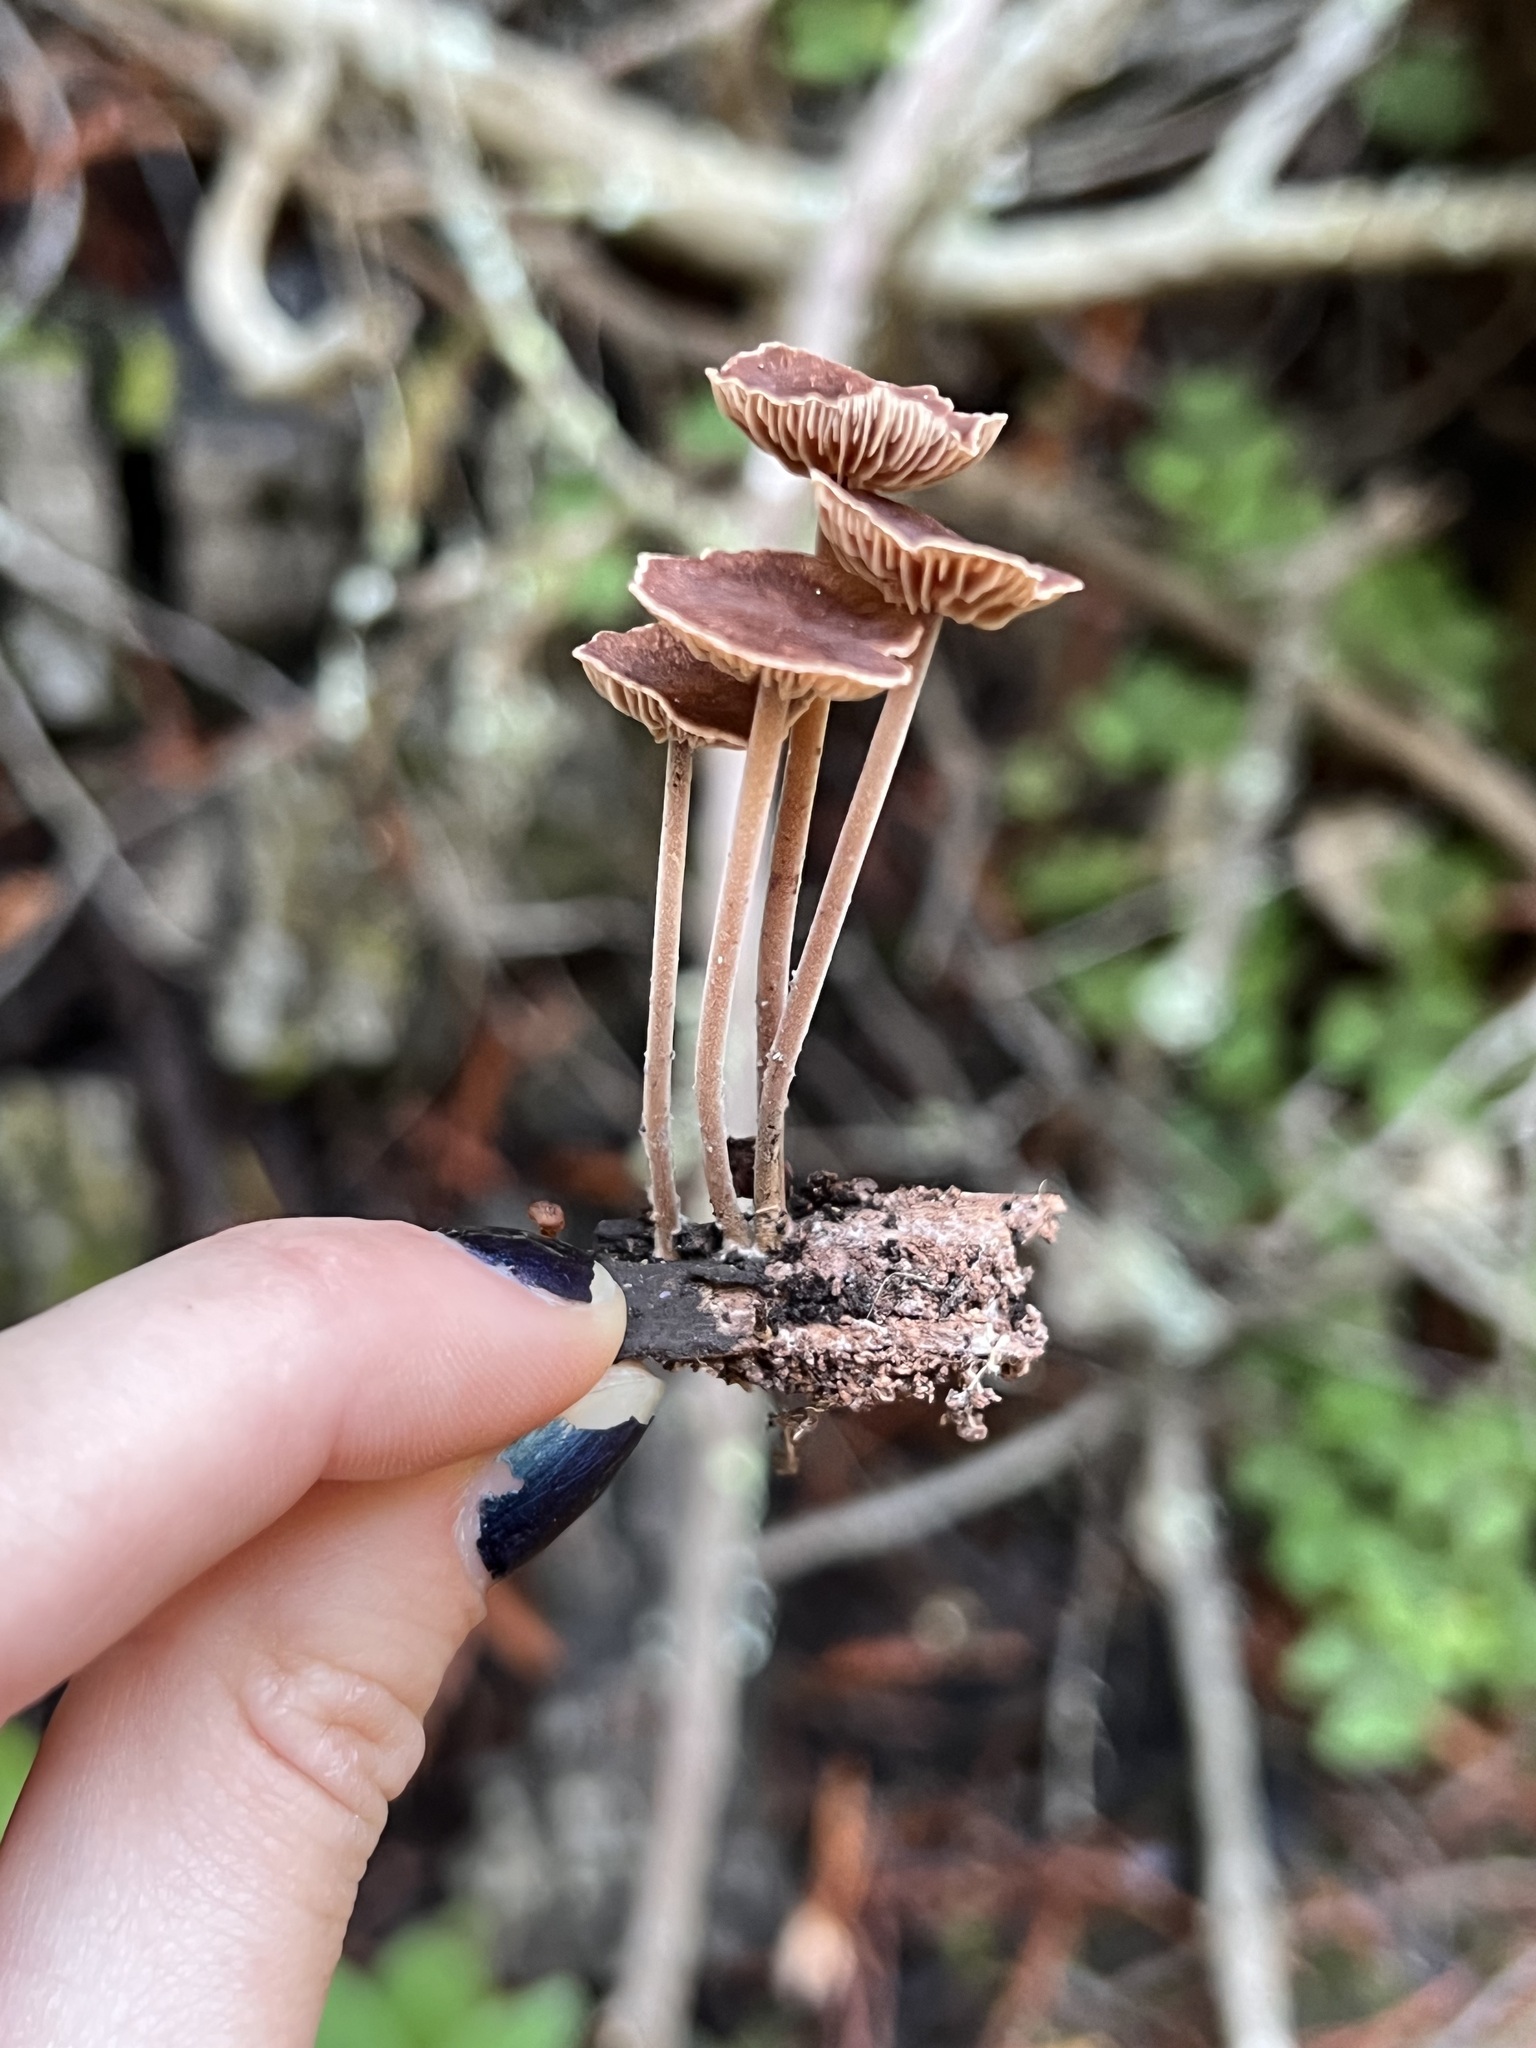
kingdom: Fungi
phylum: Basidiomycota
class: Agaricomycetes
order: Agaricales
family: Omphalotaceae
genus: Collybiopsis
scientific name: Collybiopsis villosipes
